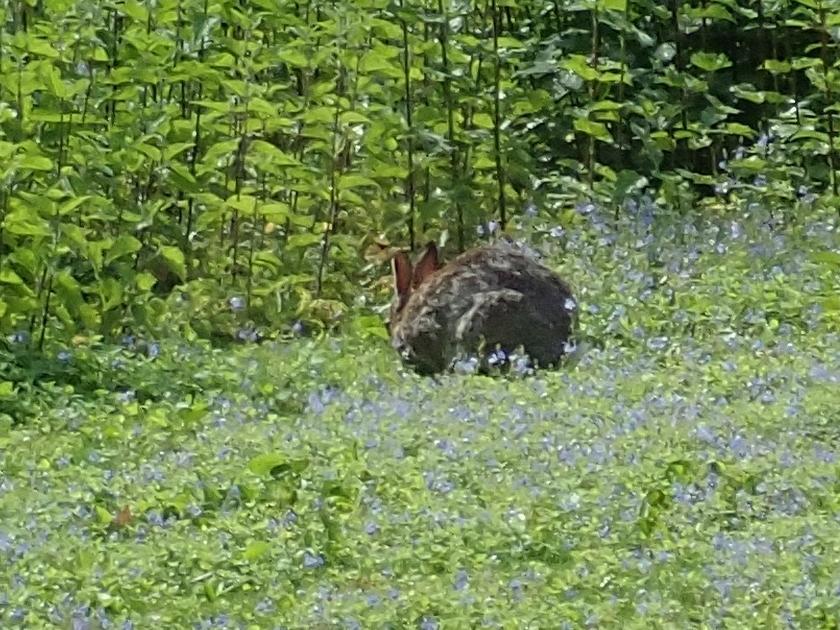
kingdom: Animalia
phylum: Chordata
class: Mammalia
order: Lagomorpha
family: Leporidae
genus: Oryctolagus
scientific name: Oryctolagus cuniculus
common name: European rabbit
